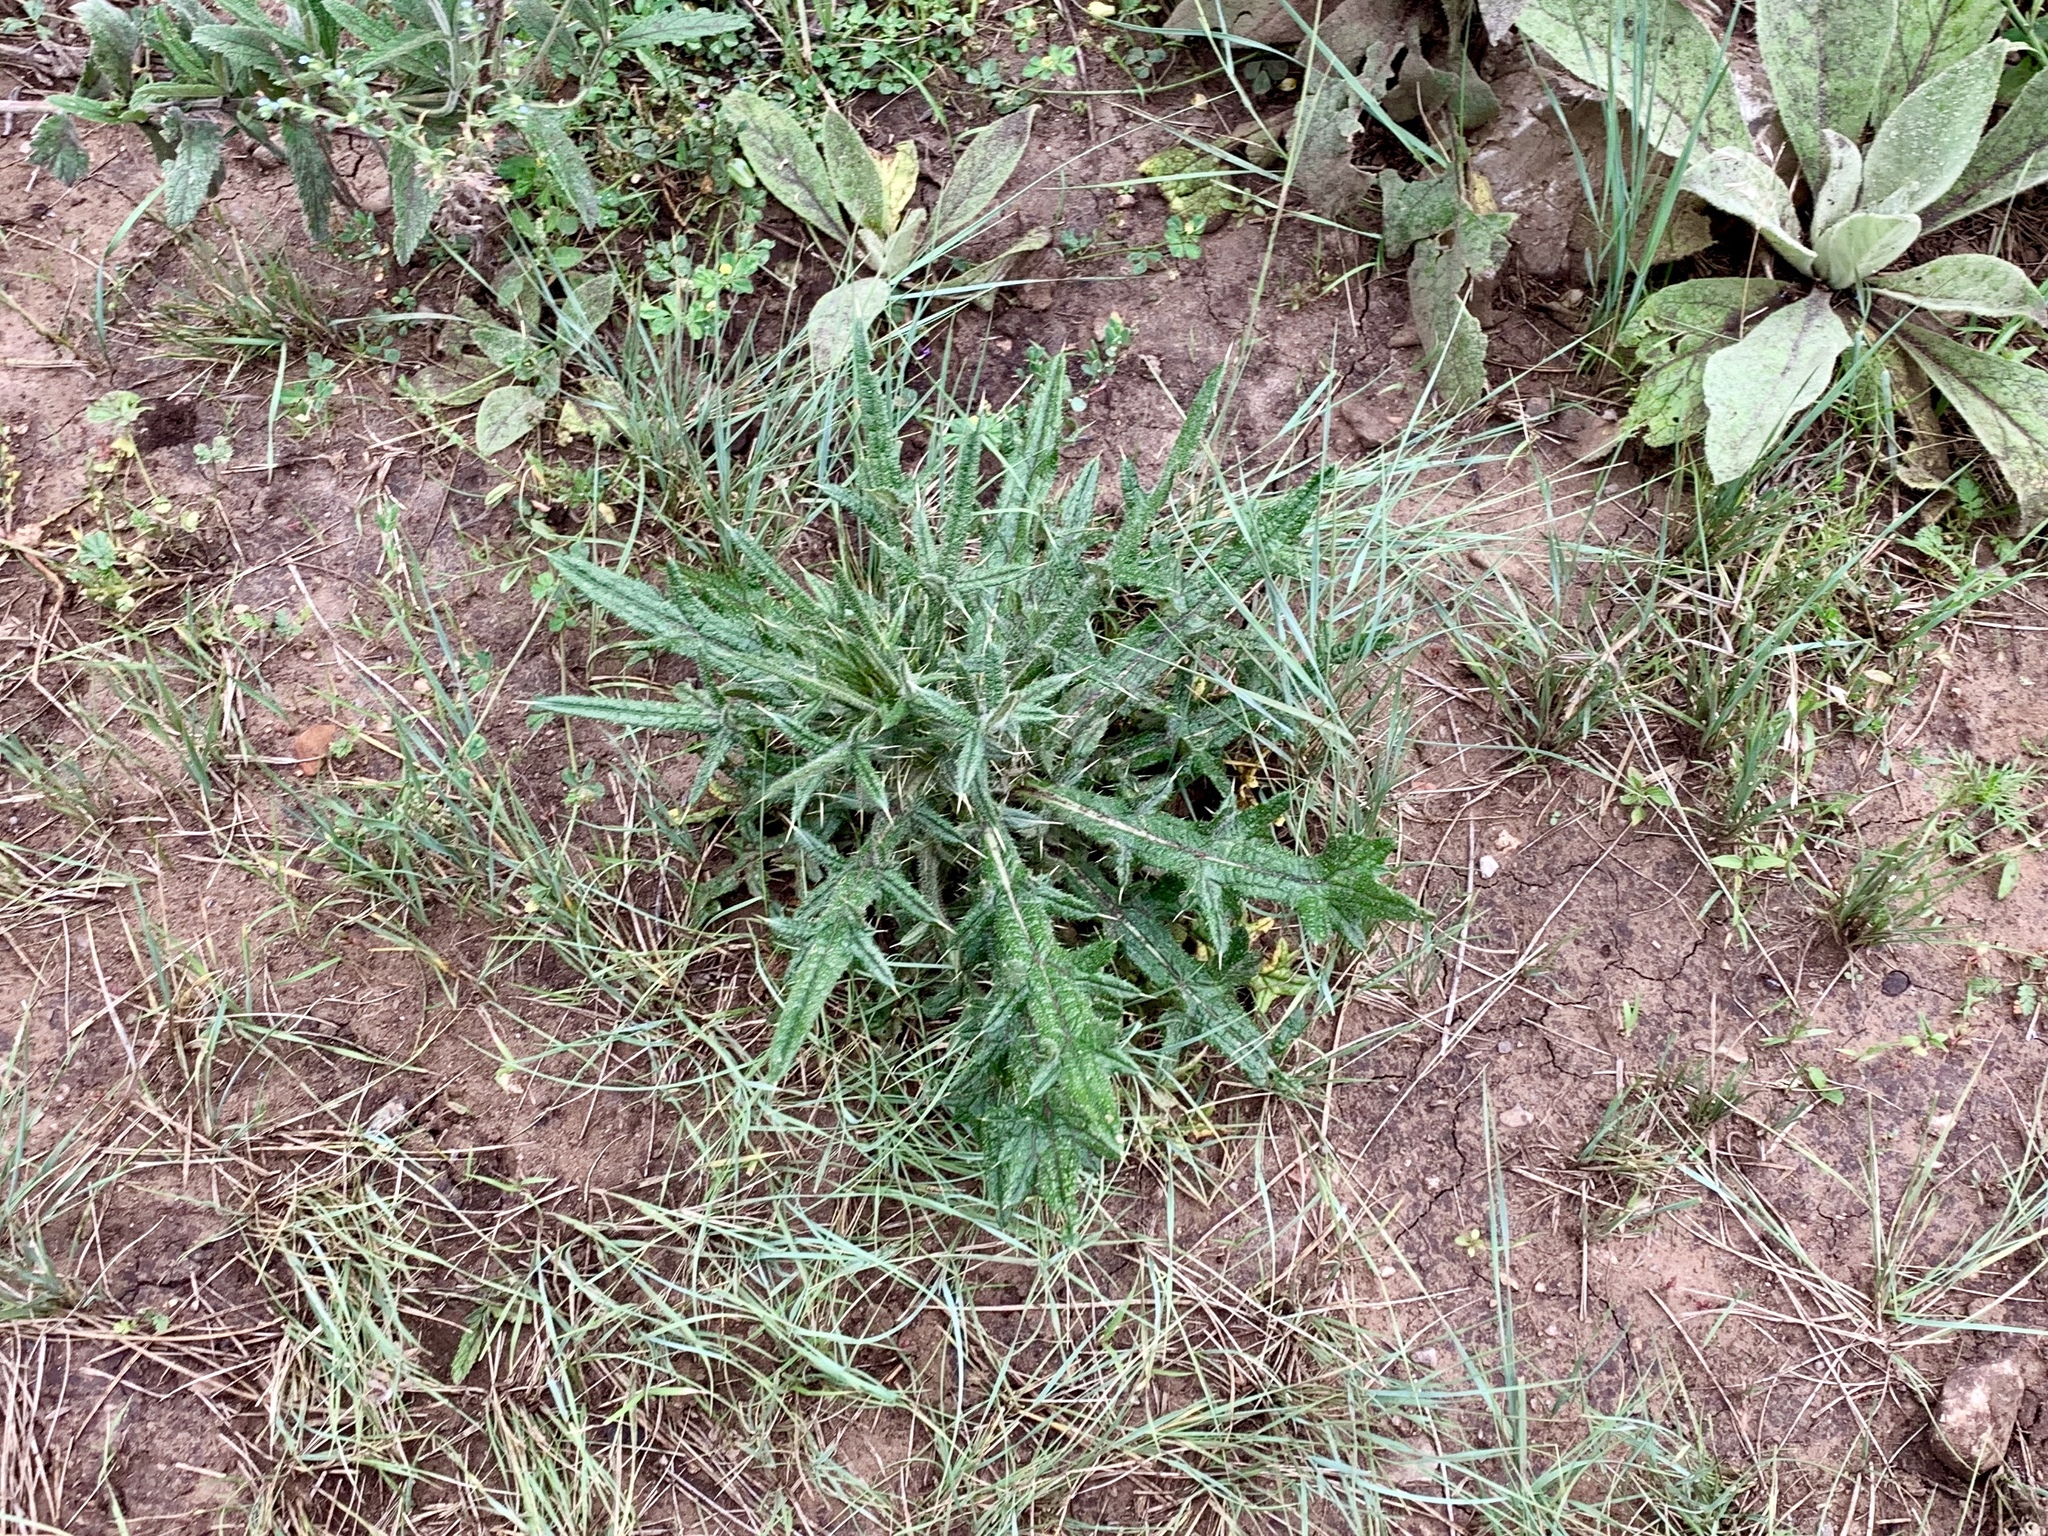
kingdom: Plantae
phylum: Tracheophyta
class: Magnoliopsida
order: Asterales
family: Asteraceae
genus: Cirsium
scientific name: Cirsium vulgare
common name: Bull thistle
